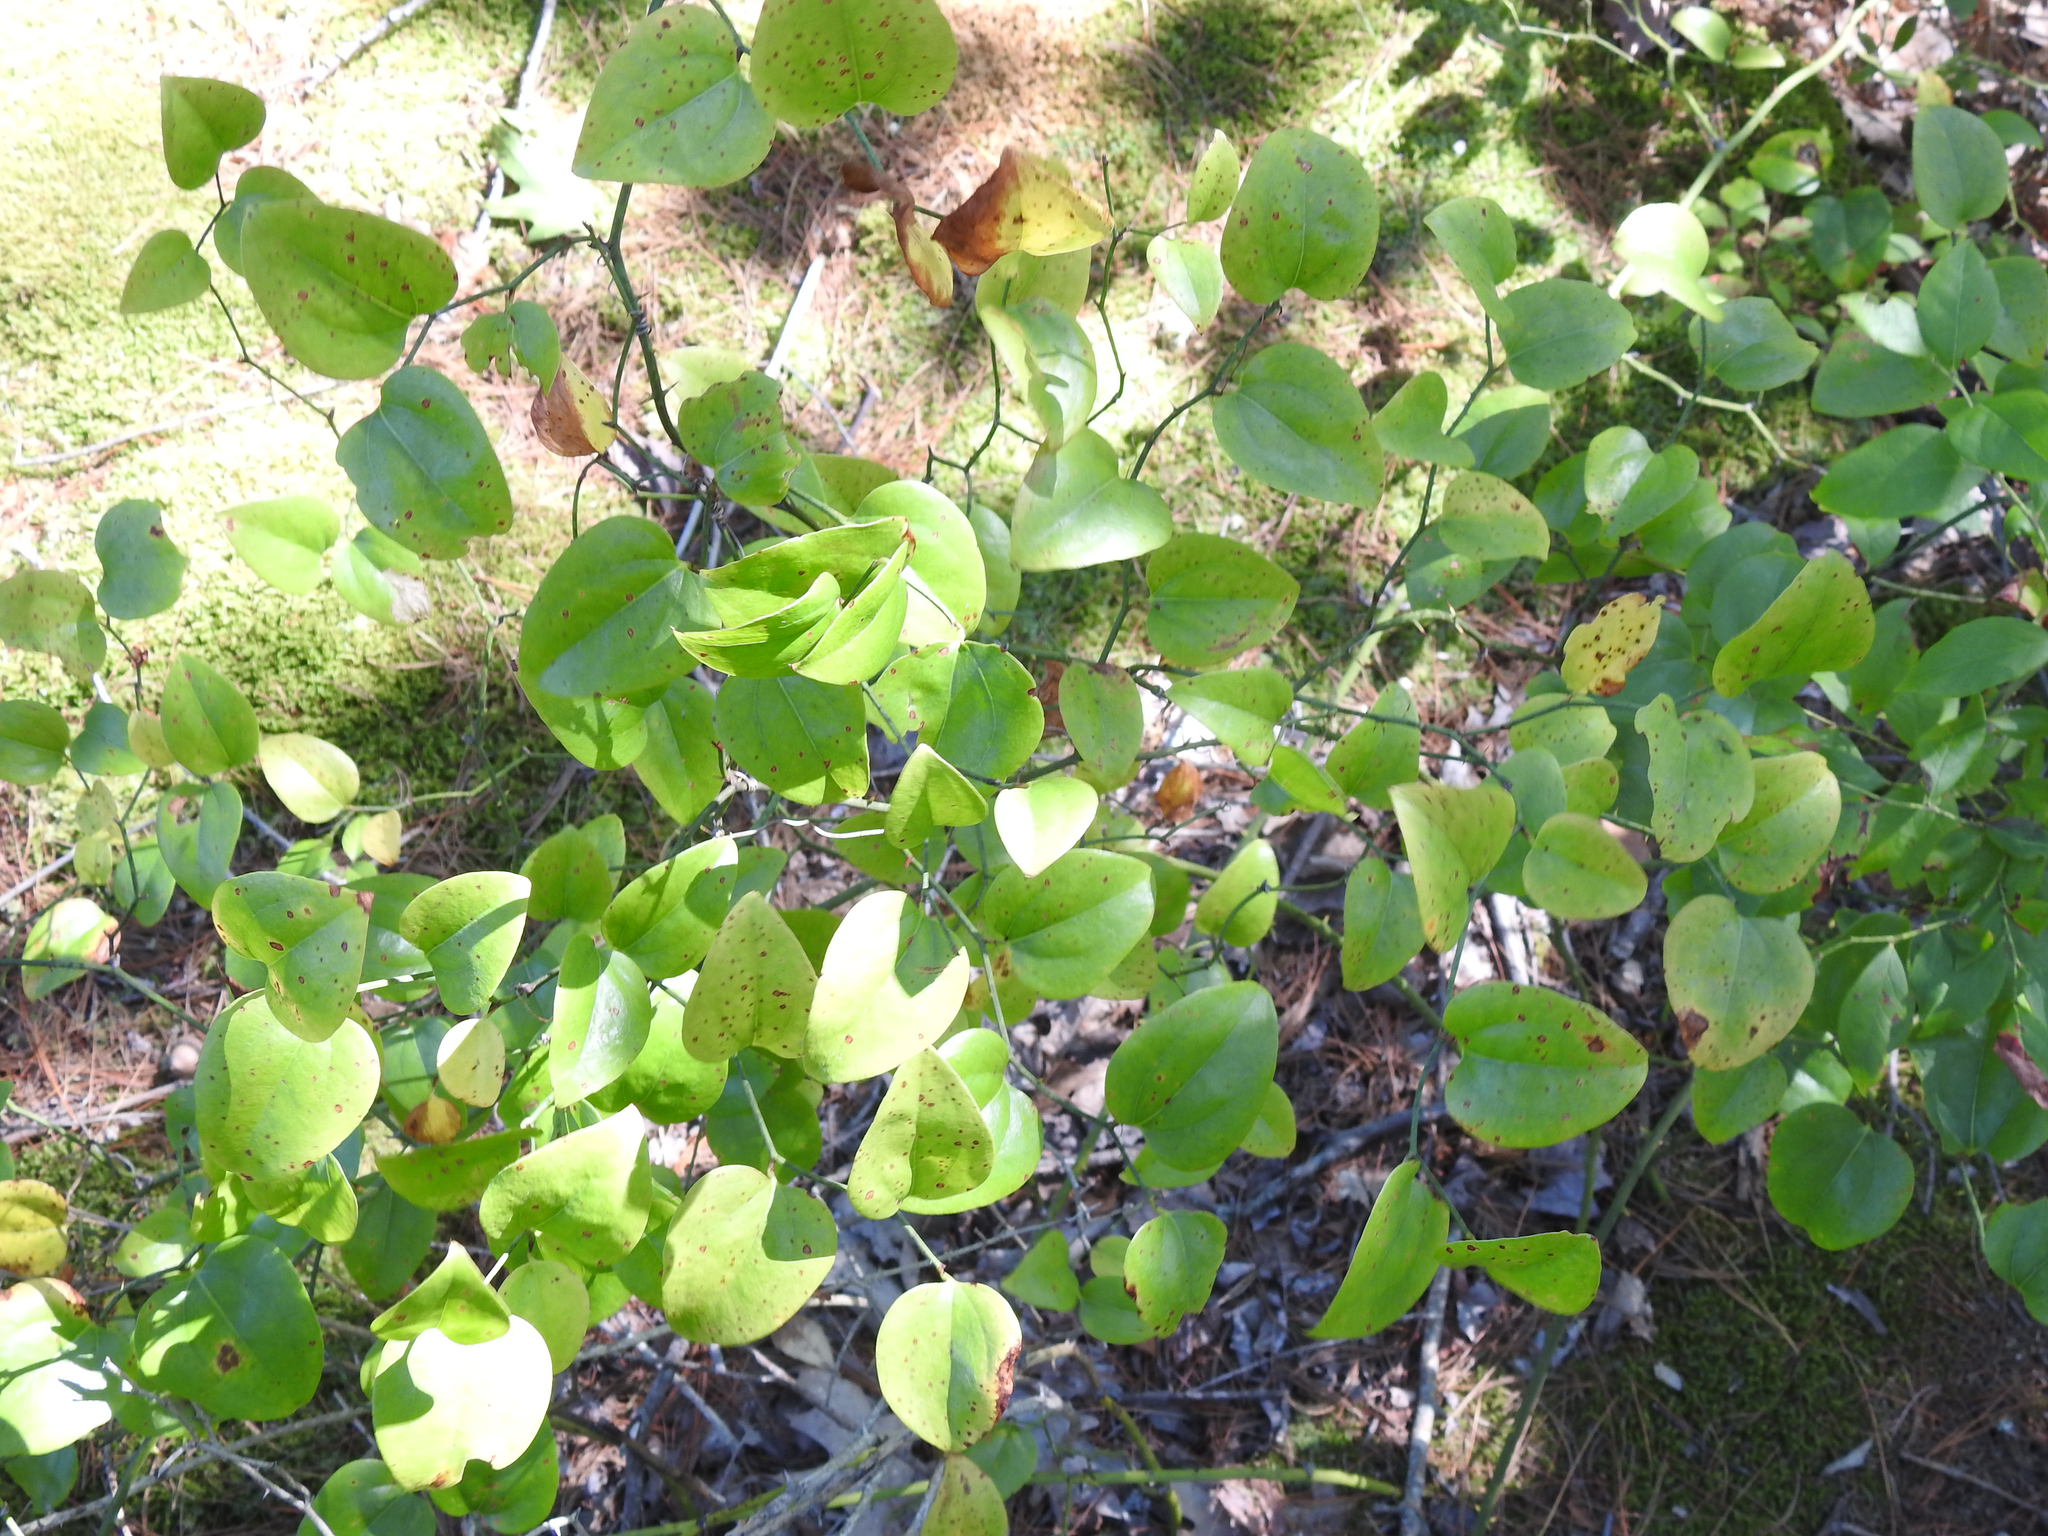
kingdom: Plantae
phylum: Tracheophyta
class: Liliopsida
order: Liliales
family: Smilacaceae
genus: Smilax
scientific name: Smilax rotundifolia
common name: Bullbriar
